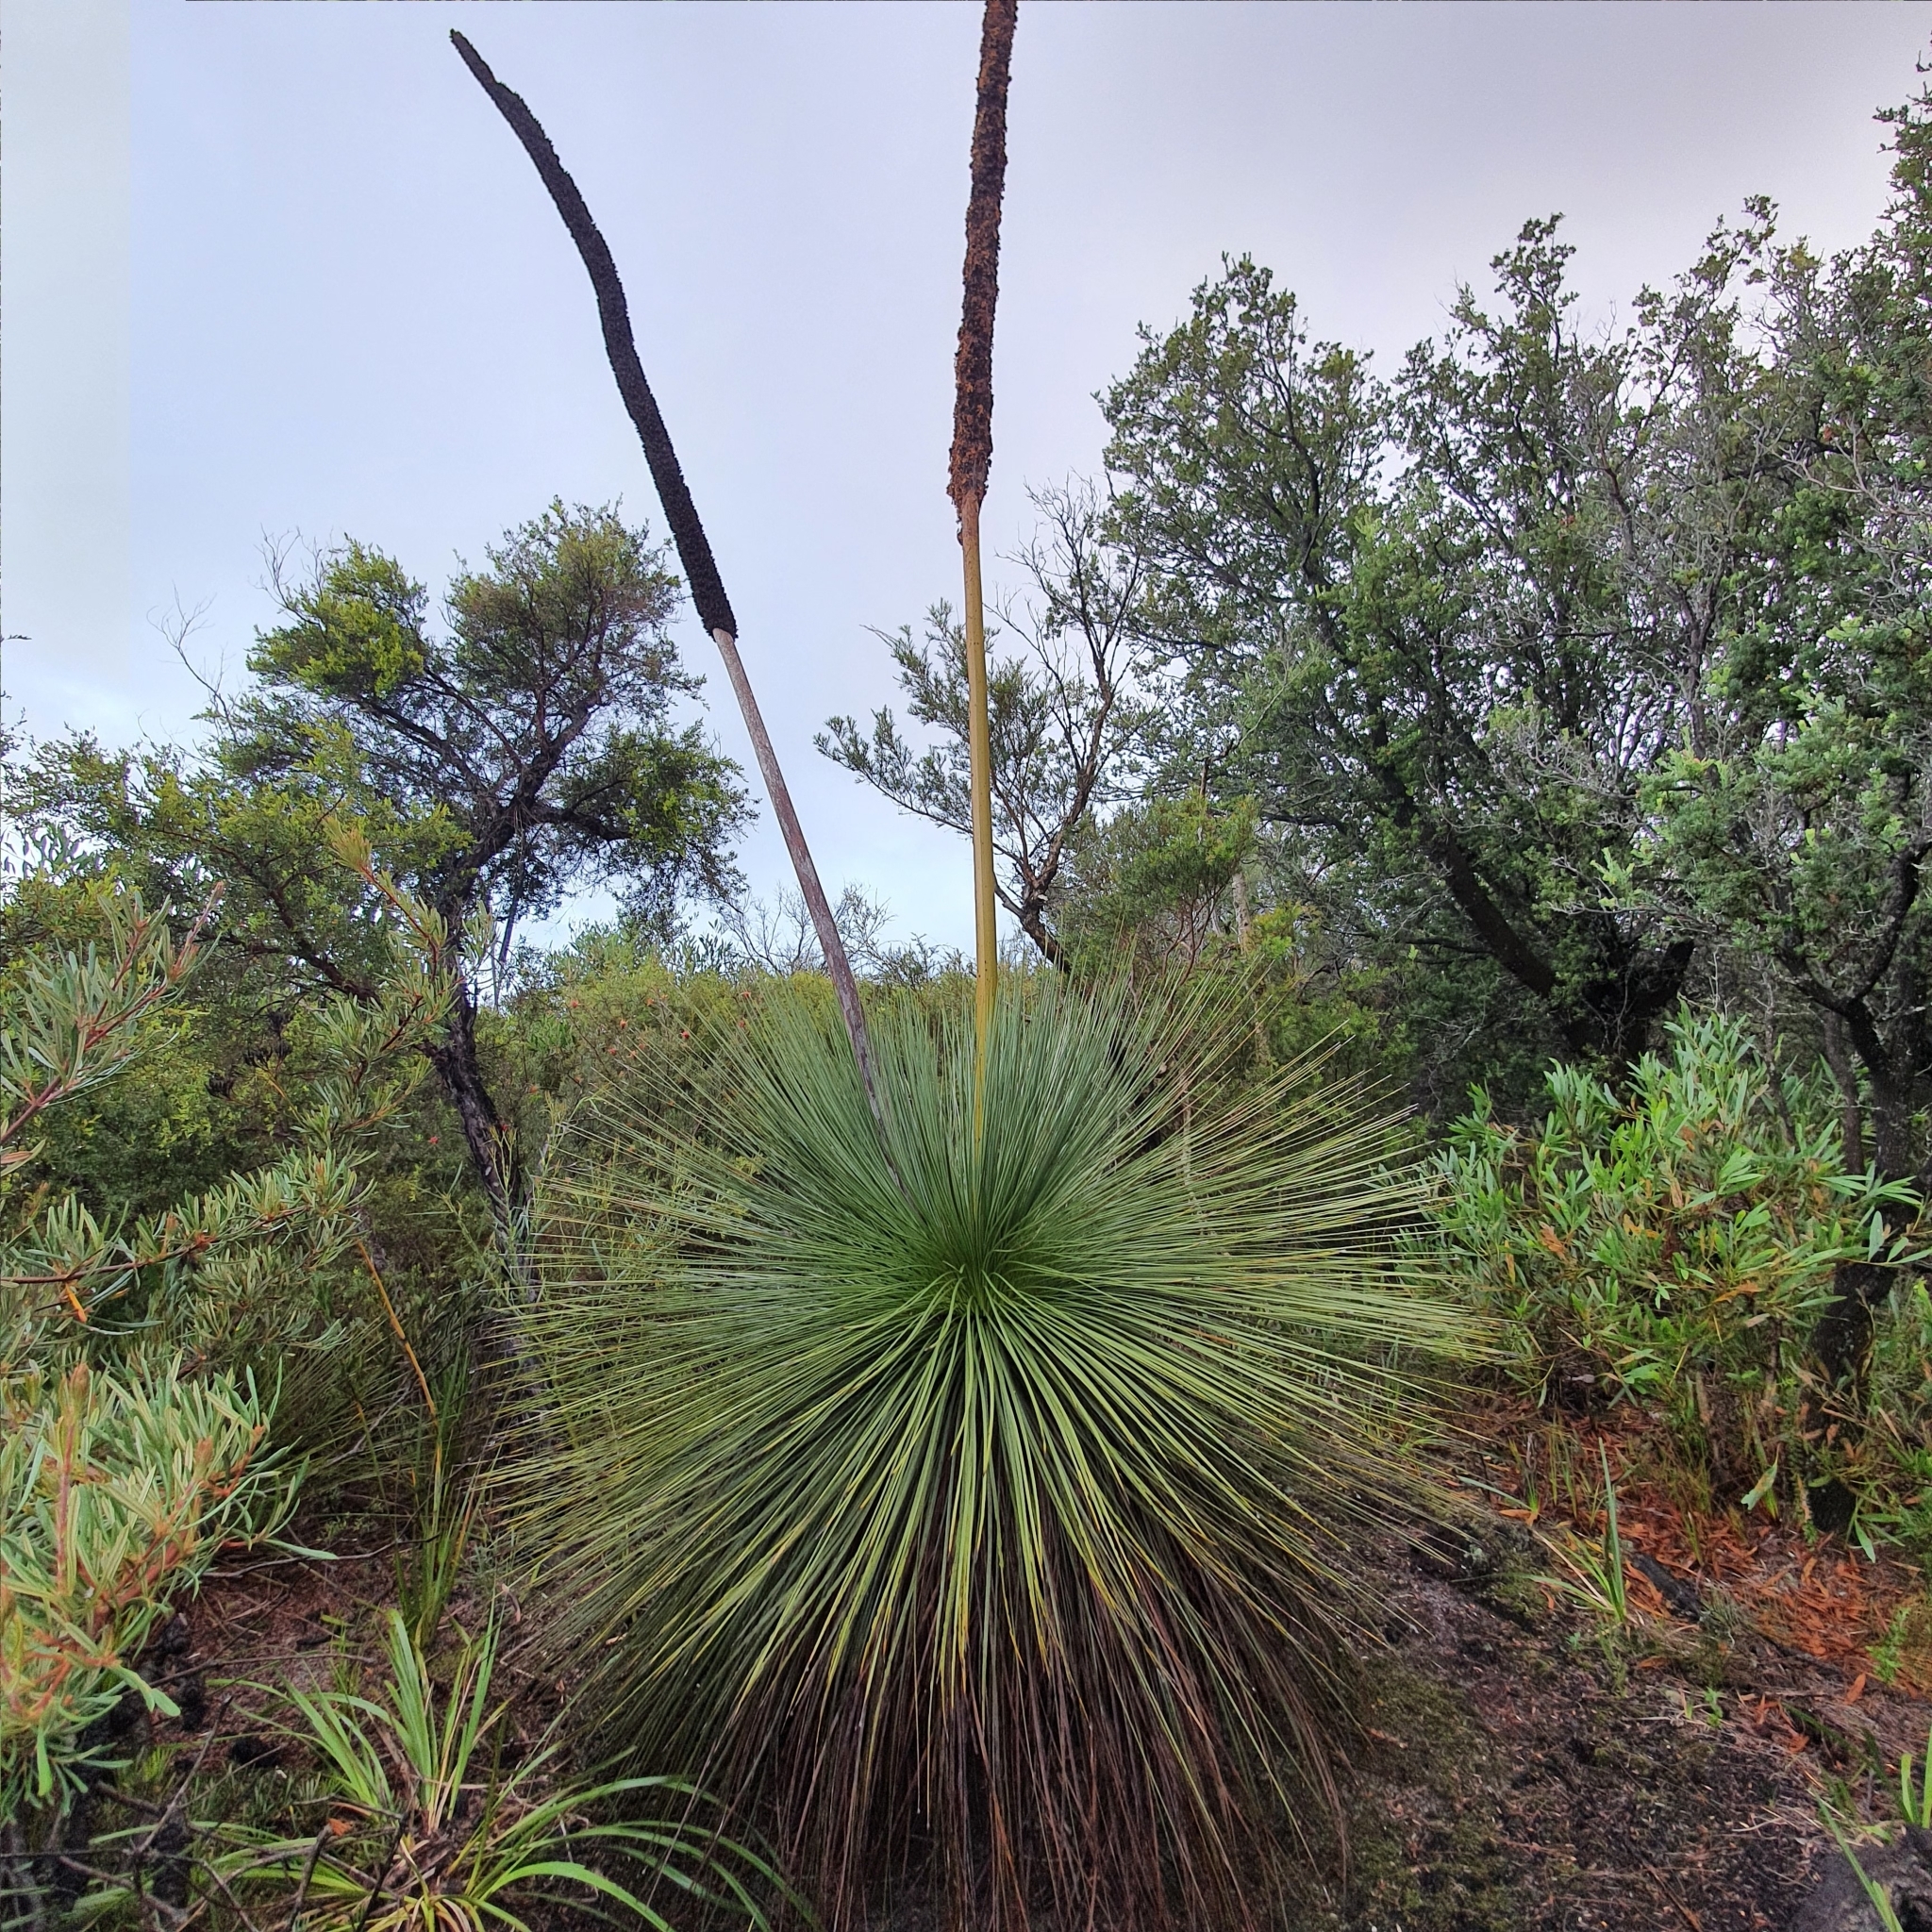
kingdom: Plantae
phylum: Tracheophyta
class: Liliopsida
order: Asparagales
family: Asphodelaceae
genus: Xanthorrhoea
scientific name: Xanthorrhoea resinosa
